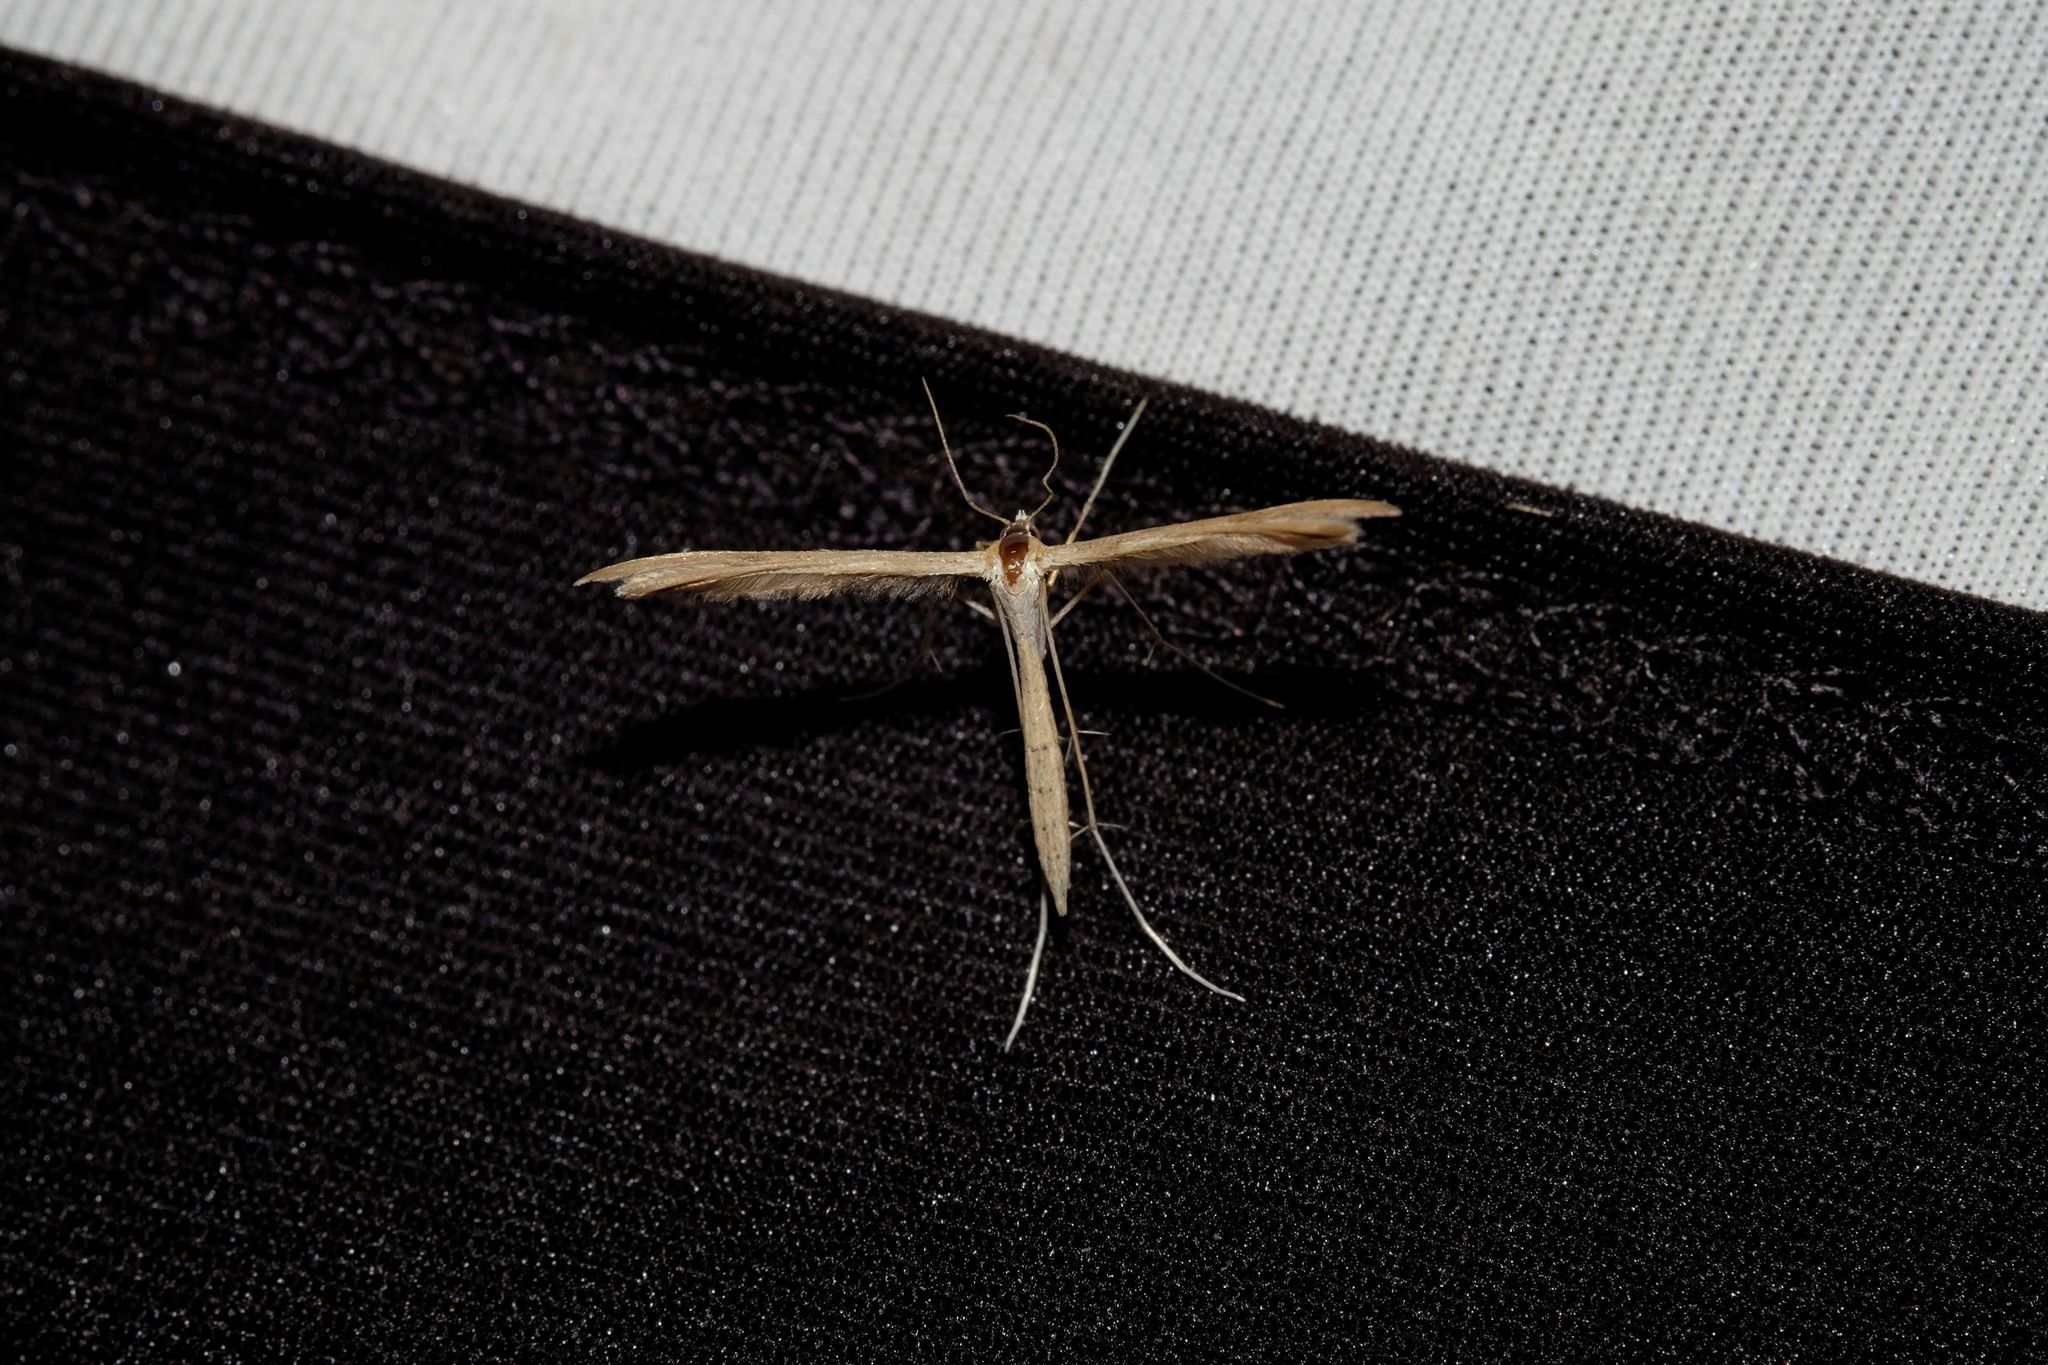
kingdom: Animalia
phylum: Arthropoda
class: Insecta
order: Lepidoptera
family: Pterophoridae
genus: Stenoptilia
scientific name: Stenoptilia zophodactylus
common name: Dowdy plume
